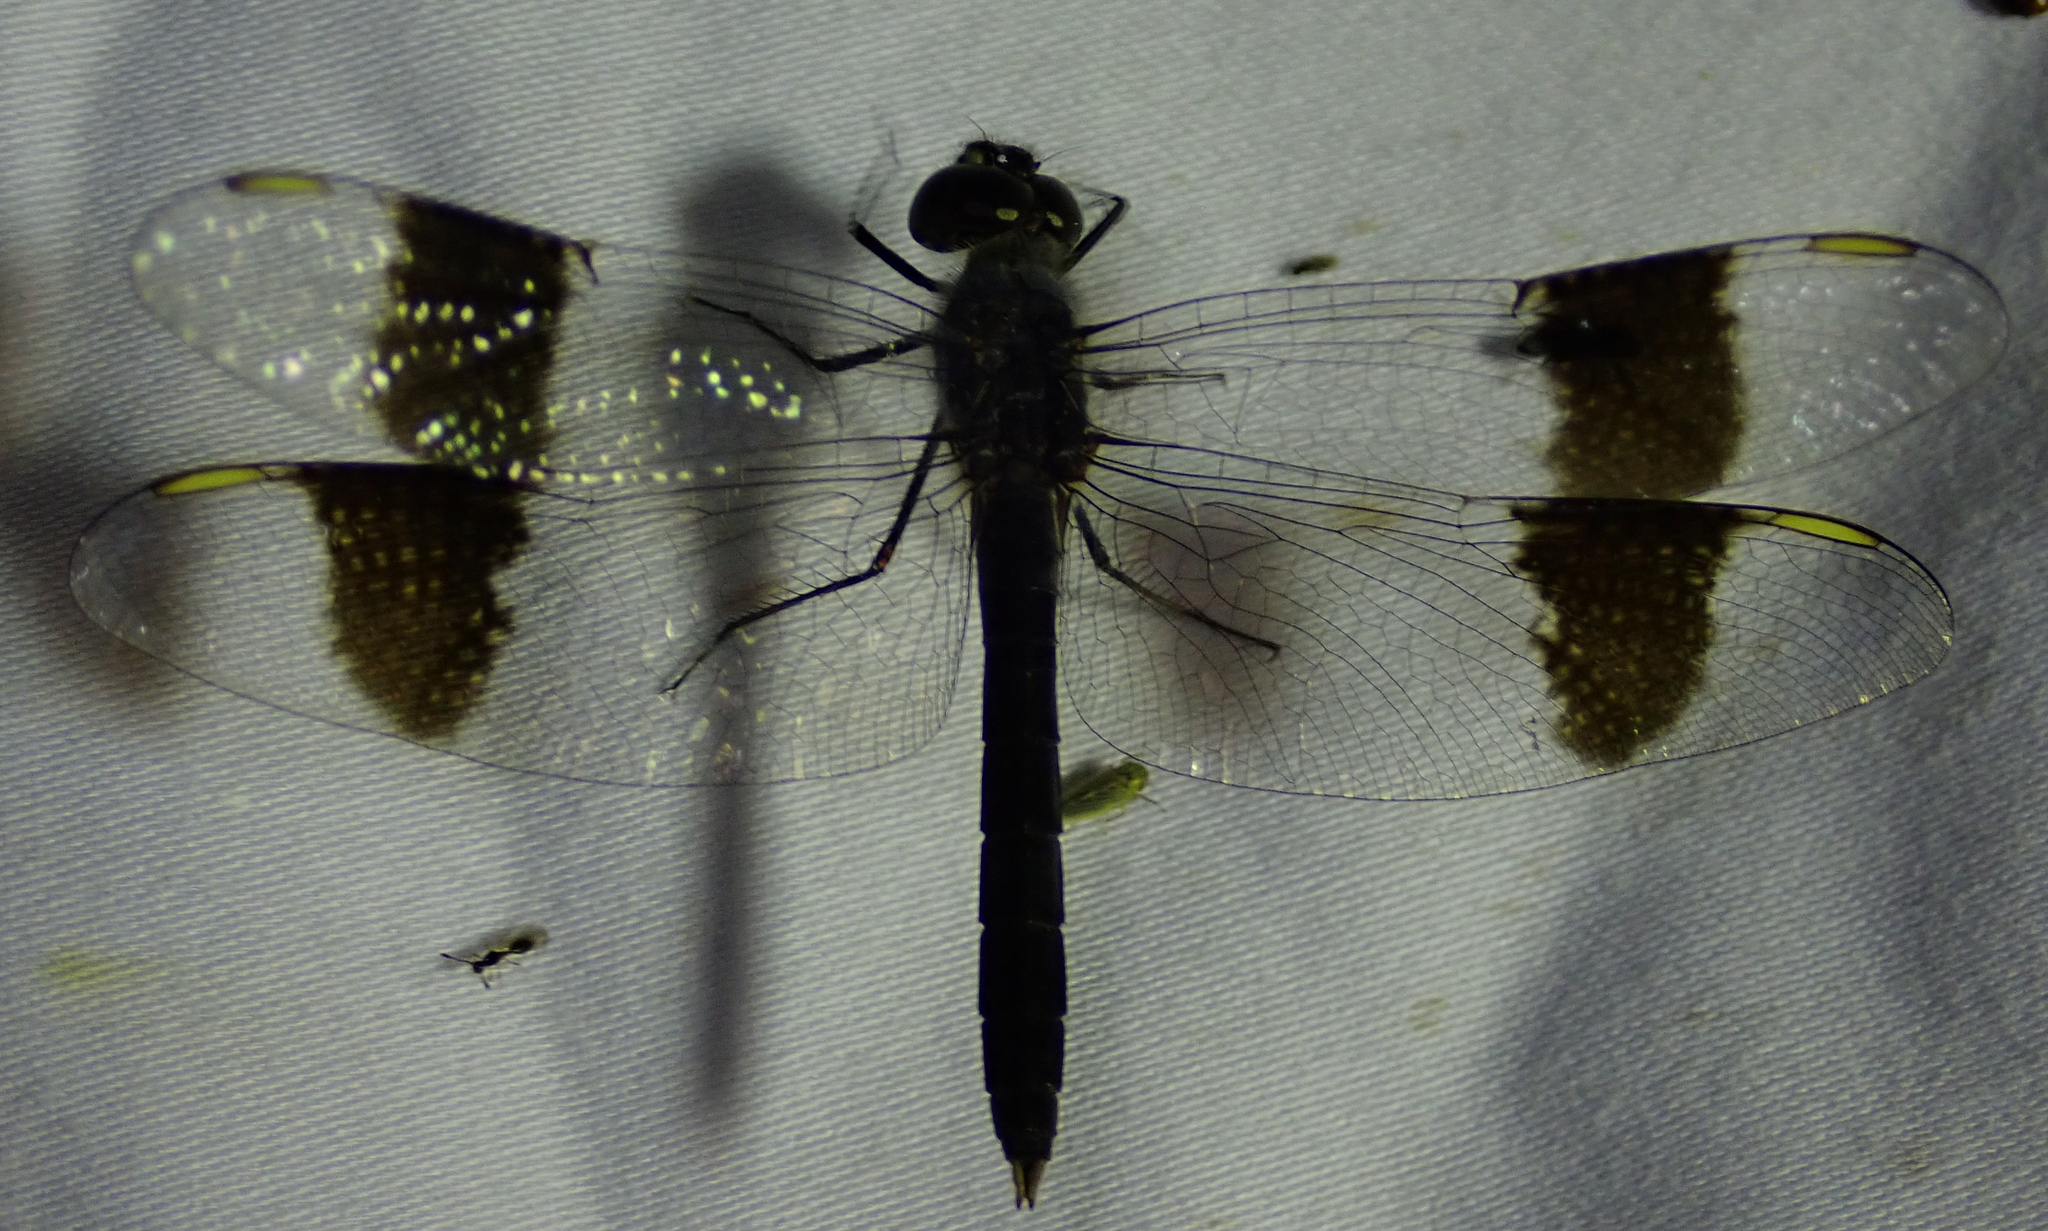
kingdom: Animalia
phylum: Arthropoda
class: Insecta
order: Odonata
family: Libellulidae
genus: Brachythemis
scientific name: Brachythemis leucosticta
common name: Banded groundling
